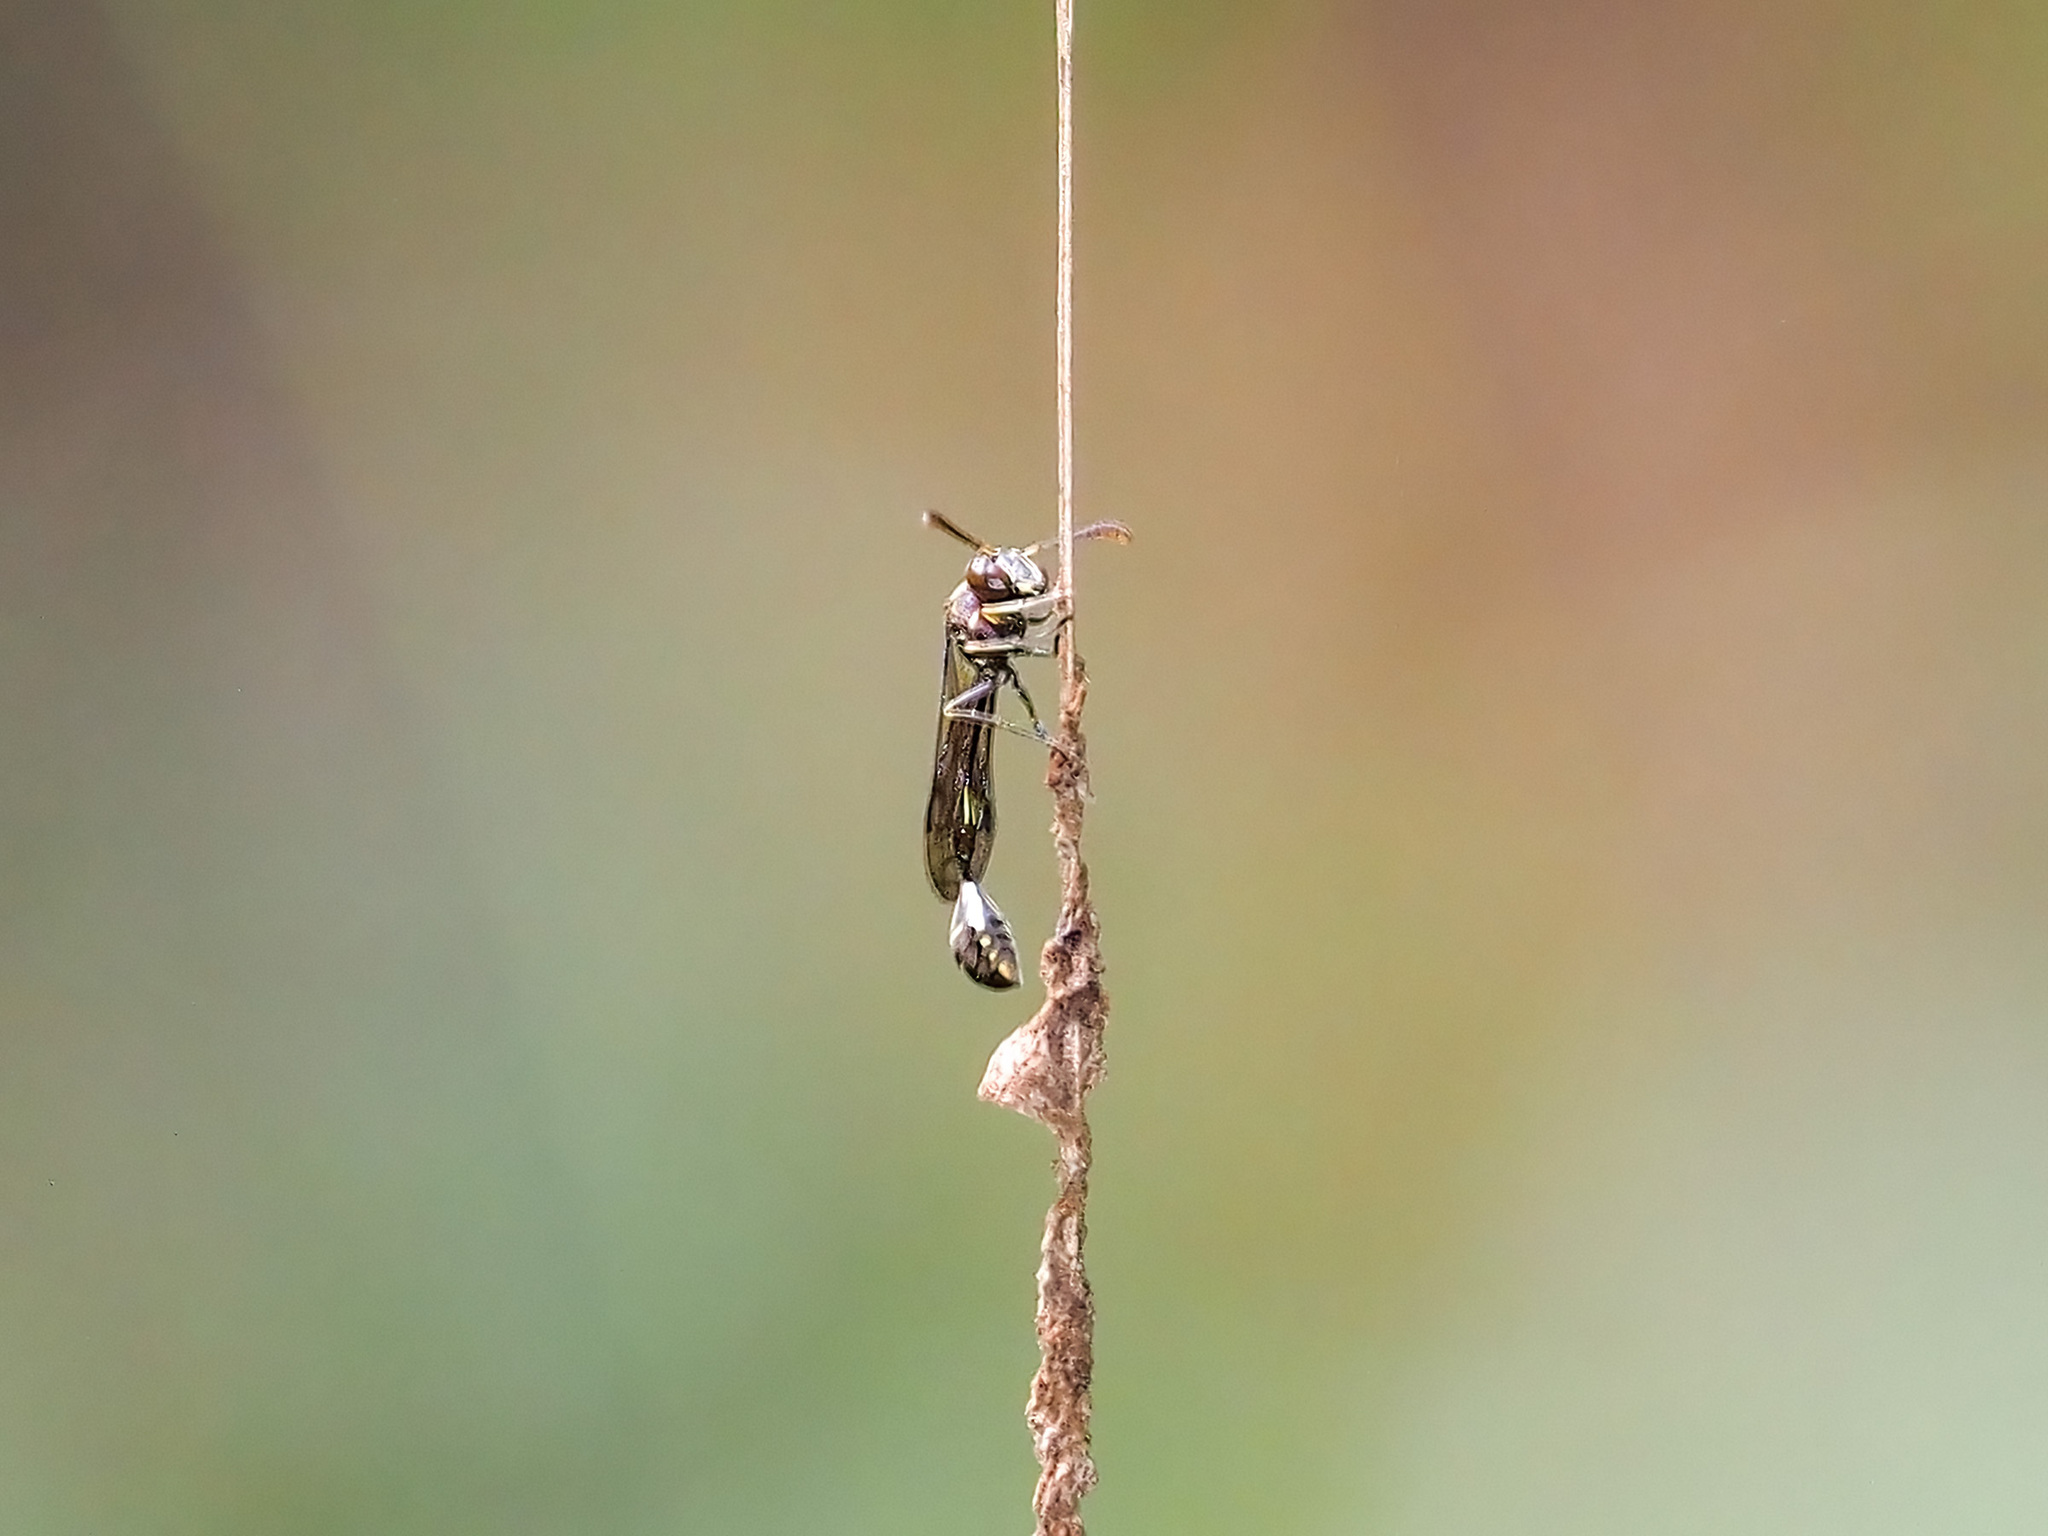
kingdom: Animalia
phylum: Arthropoda
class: Insecta
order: Hymenoptera
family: Vespidae
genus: Parischnogaster
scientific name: Parischnogaster mellyi
